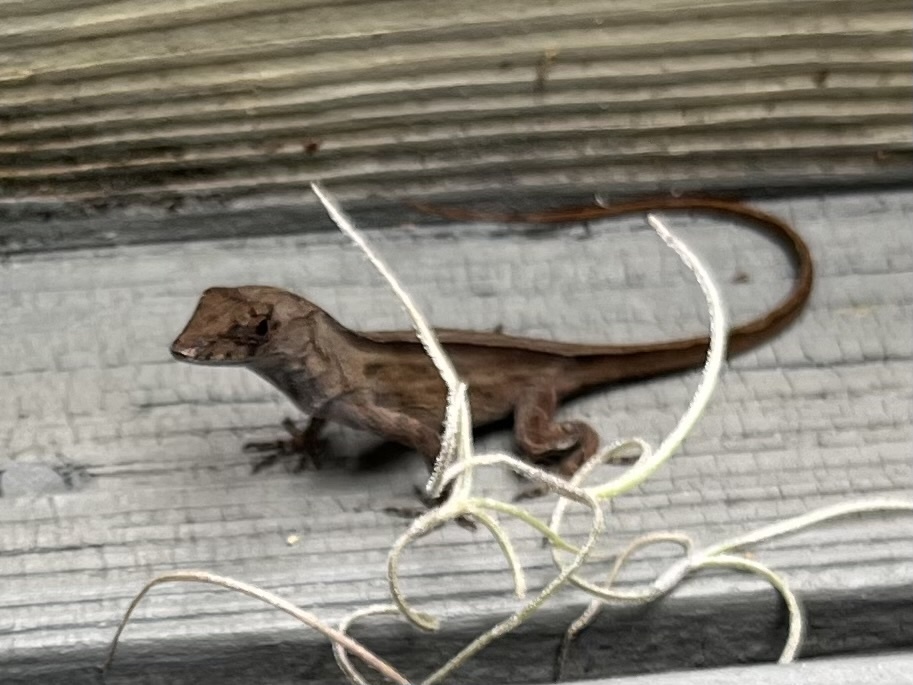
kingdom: Animalia
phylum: Chordata
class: Squamata
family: Dactyloidae
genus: Anolis
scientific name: Anolis sagrei
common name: Brown anole
